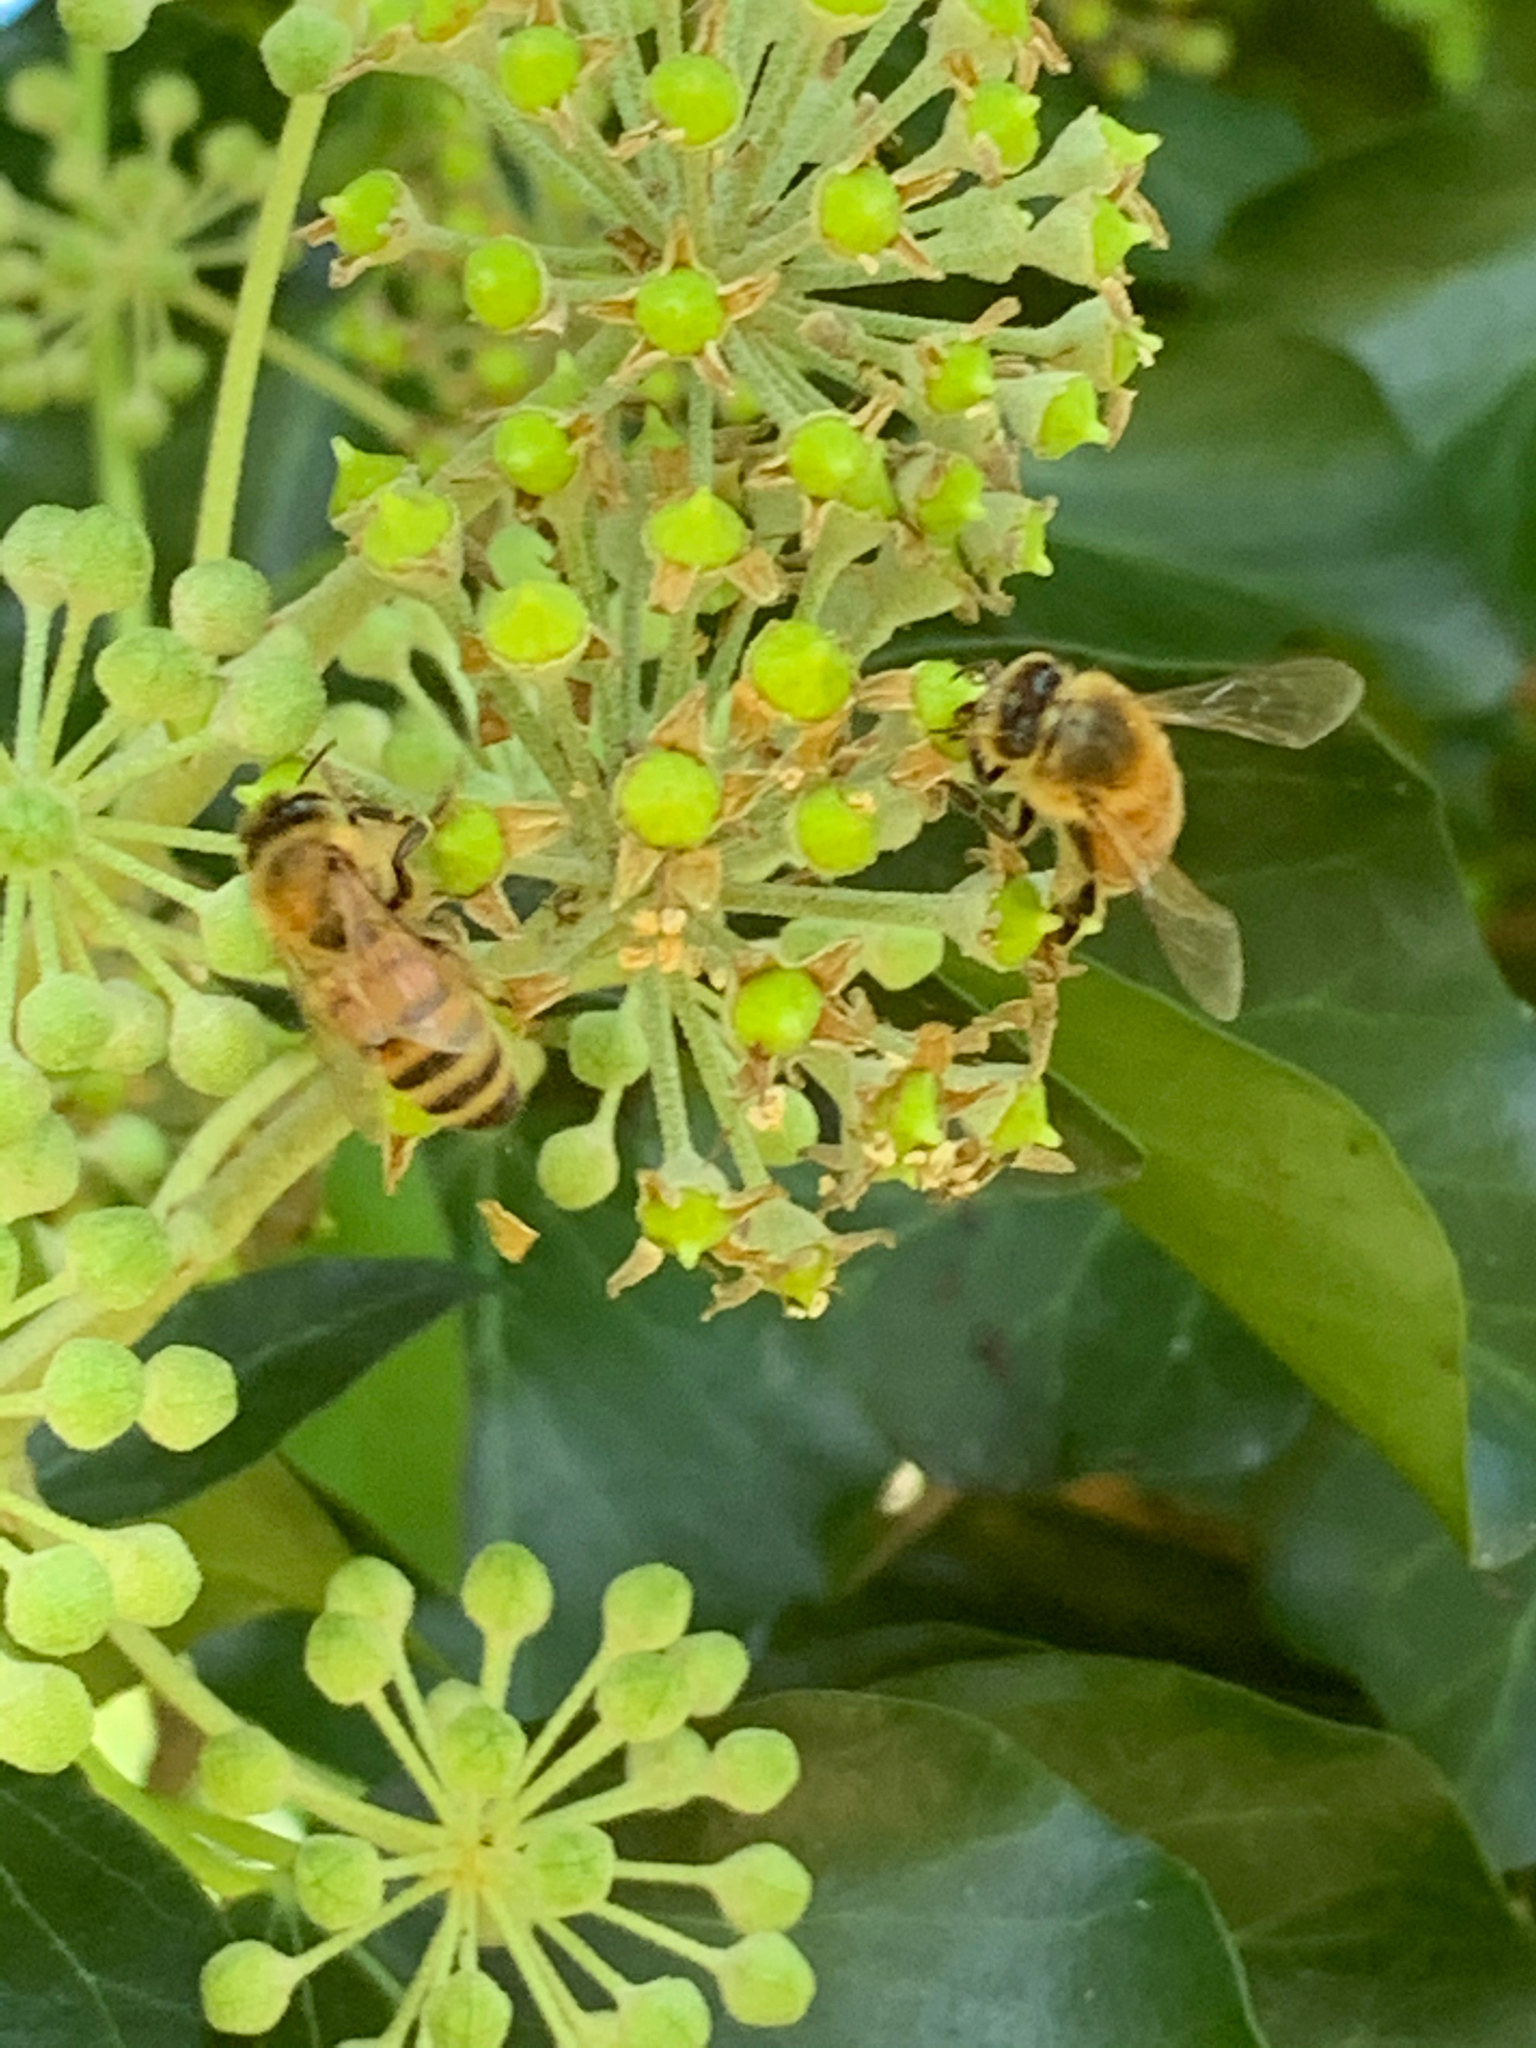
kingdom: Animalia
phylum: Arthropoda
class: Insecta
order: Hymenoptera
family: Apidae
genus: Apis
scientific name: Apis mellifera
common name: Honey bee
